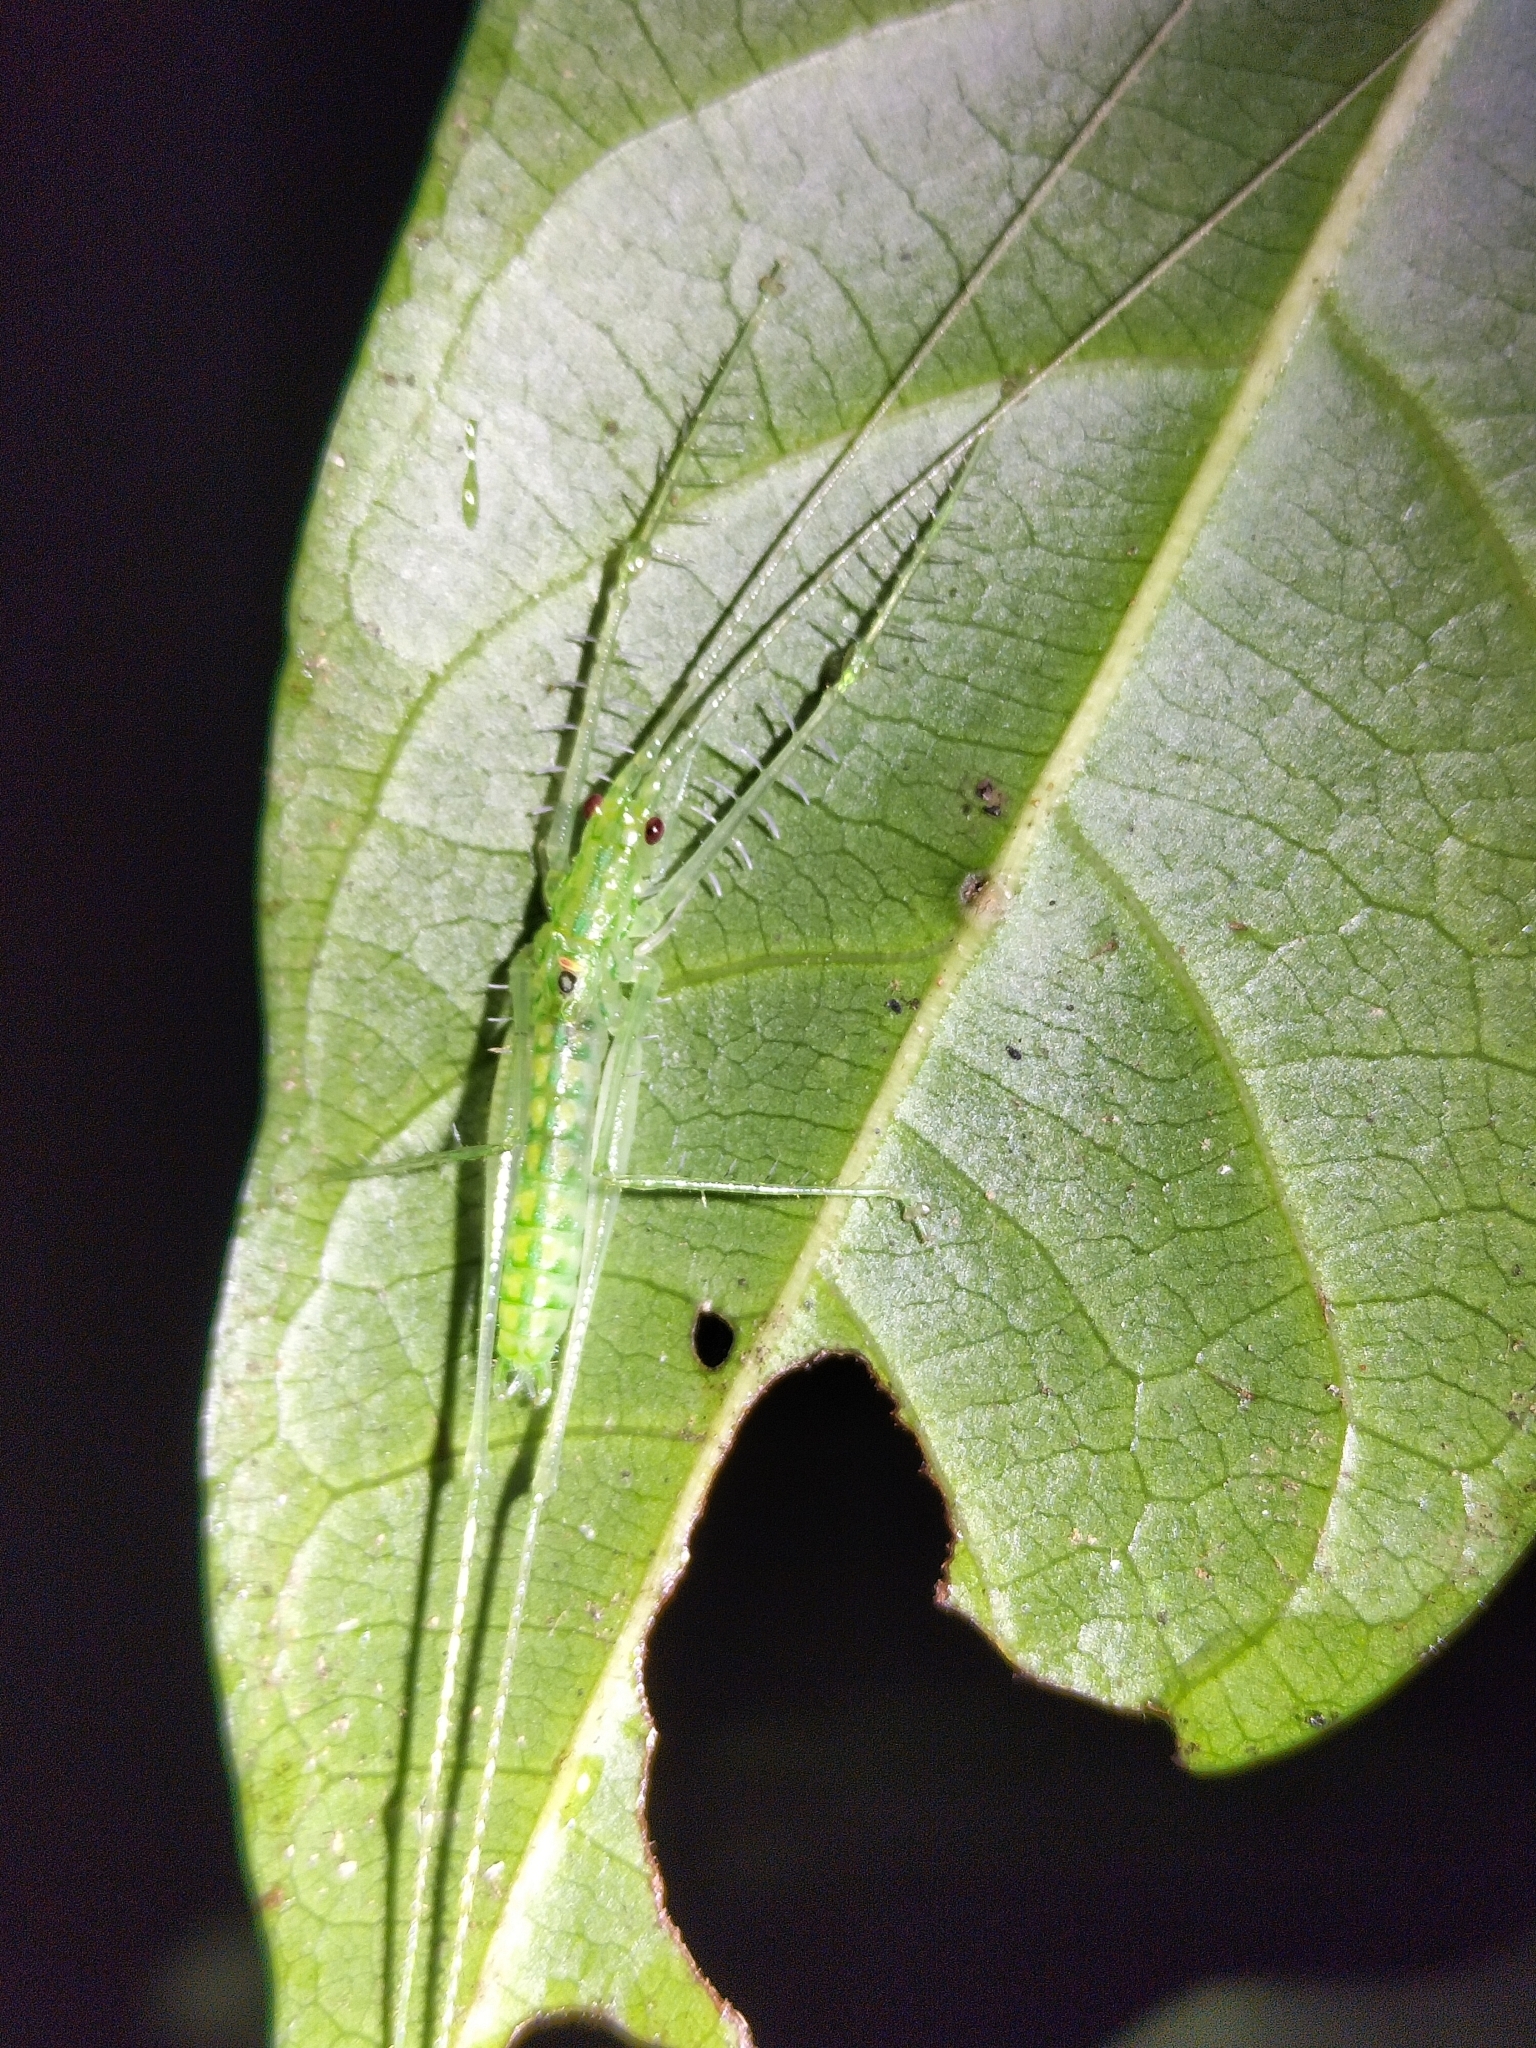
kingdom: Animalia
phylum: Arthropoda
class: Insecta
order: Orthoptera
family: Tettigoniidae
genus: Meiophisis
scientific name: Meiophisis likkaldin
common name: Short-winged spider katydid
